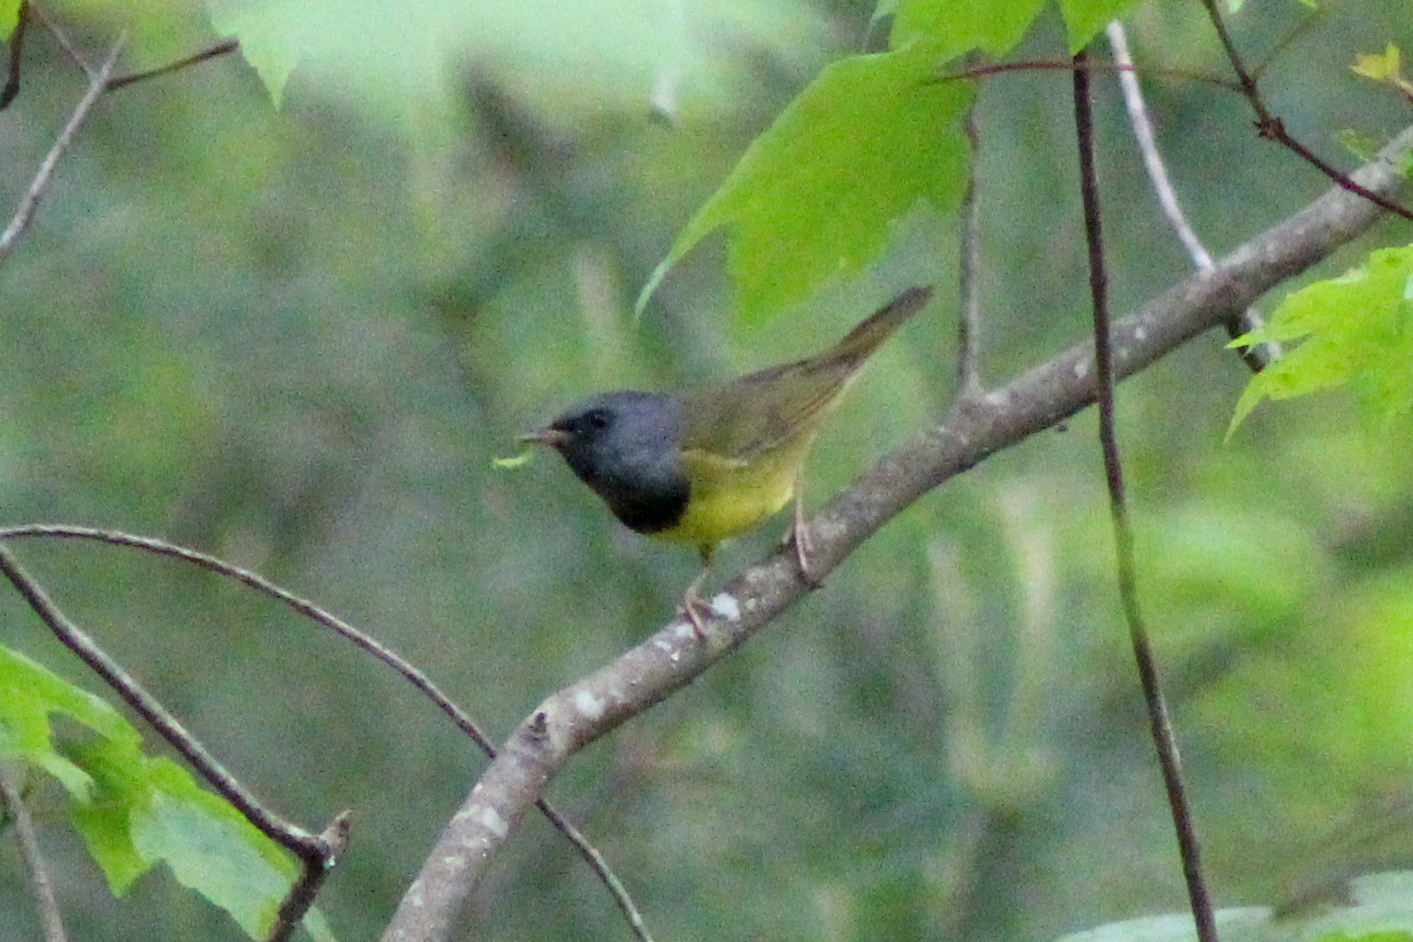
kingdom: Animalia
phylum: Chordata
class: Aves
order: Passeriformes
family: Parulidae
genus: Geothlypis
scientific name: Geothlypis philadelphia
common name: Mourning warbler
